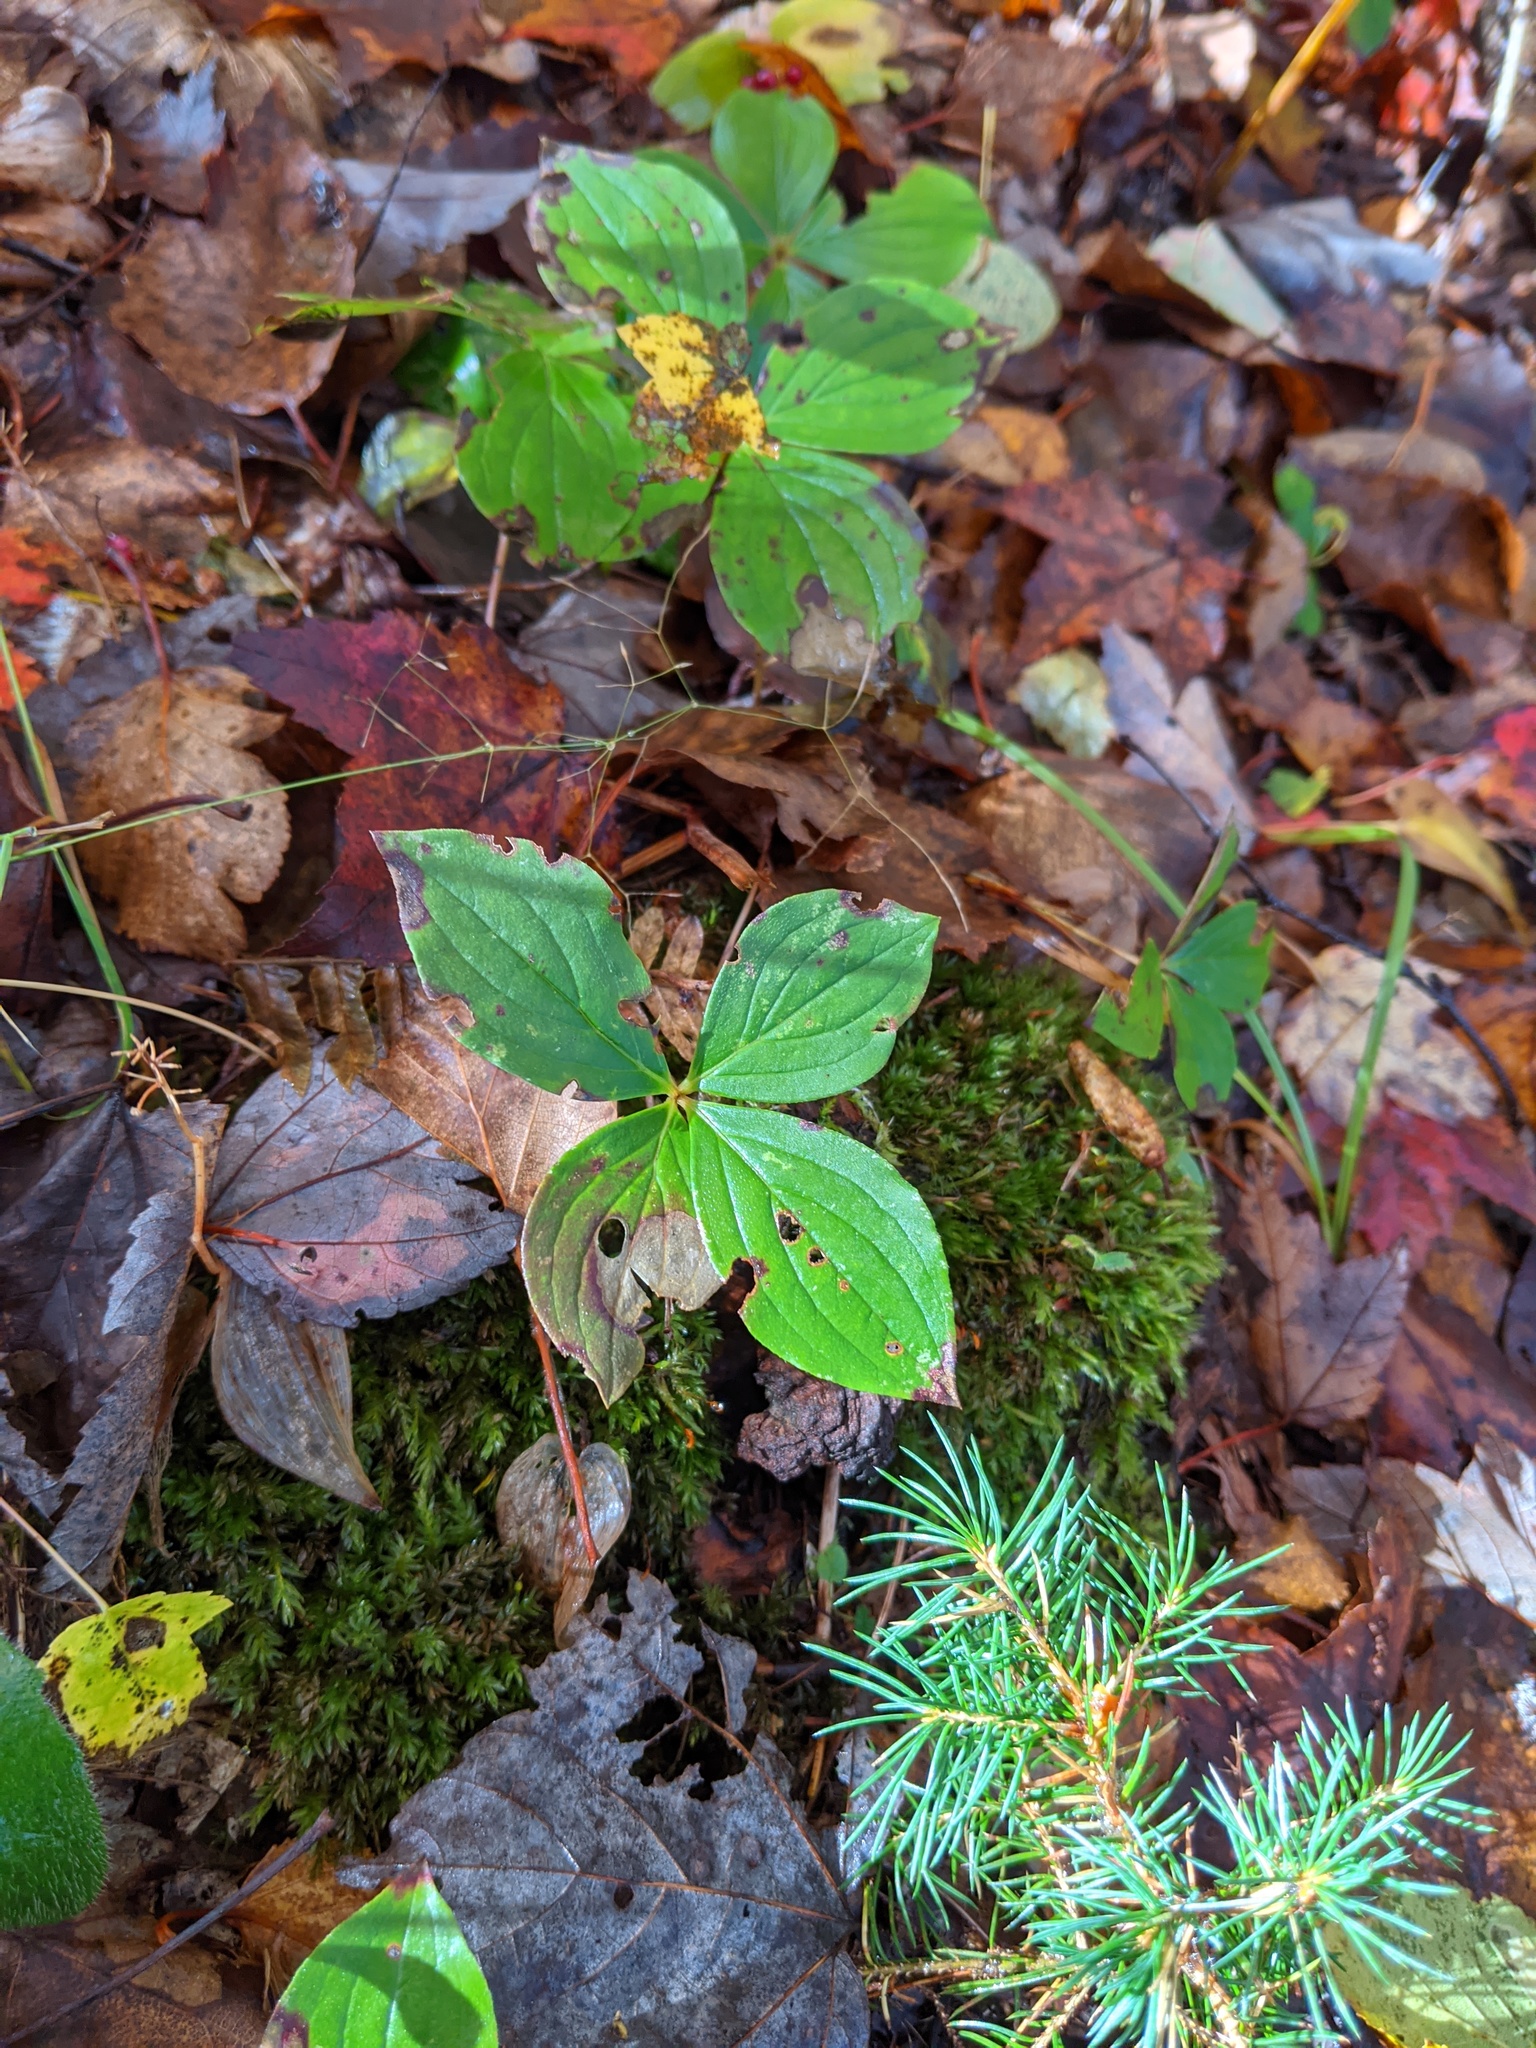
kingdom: Plantae
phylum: Tracheophyta
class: Magnoliopsida
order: Cornales
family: Cornaceae
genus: Cornus
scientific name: Cornus canadensis
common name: Creeping dogwood
